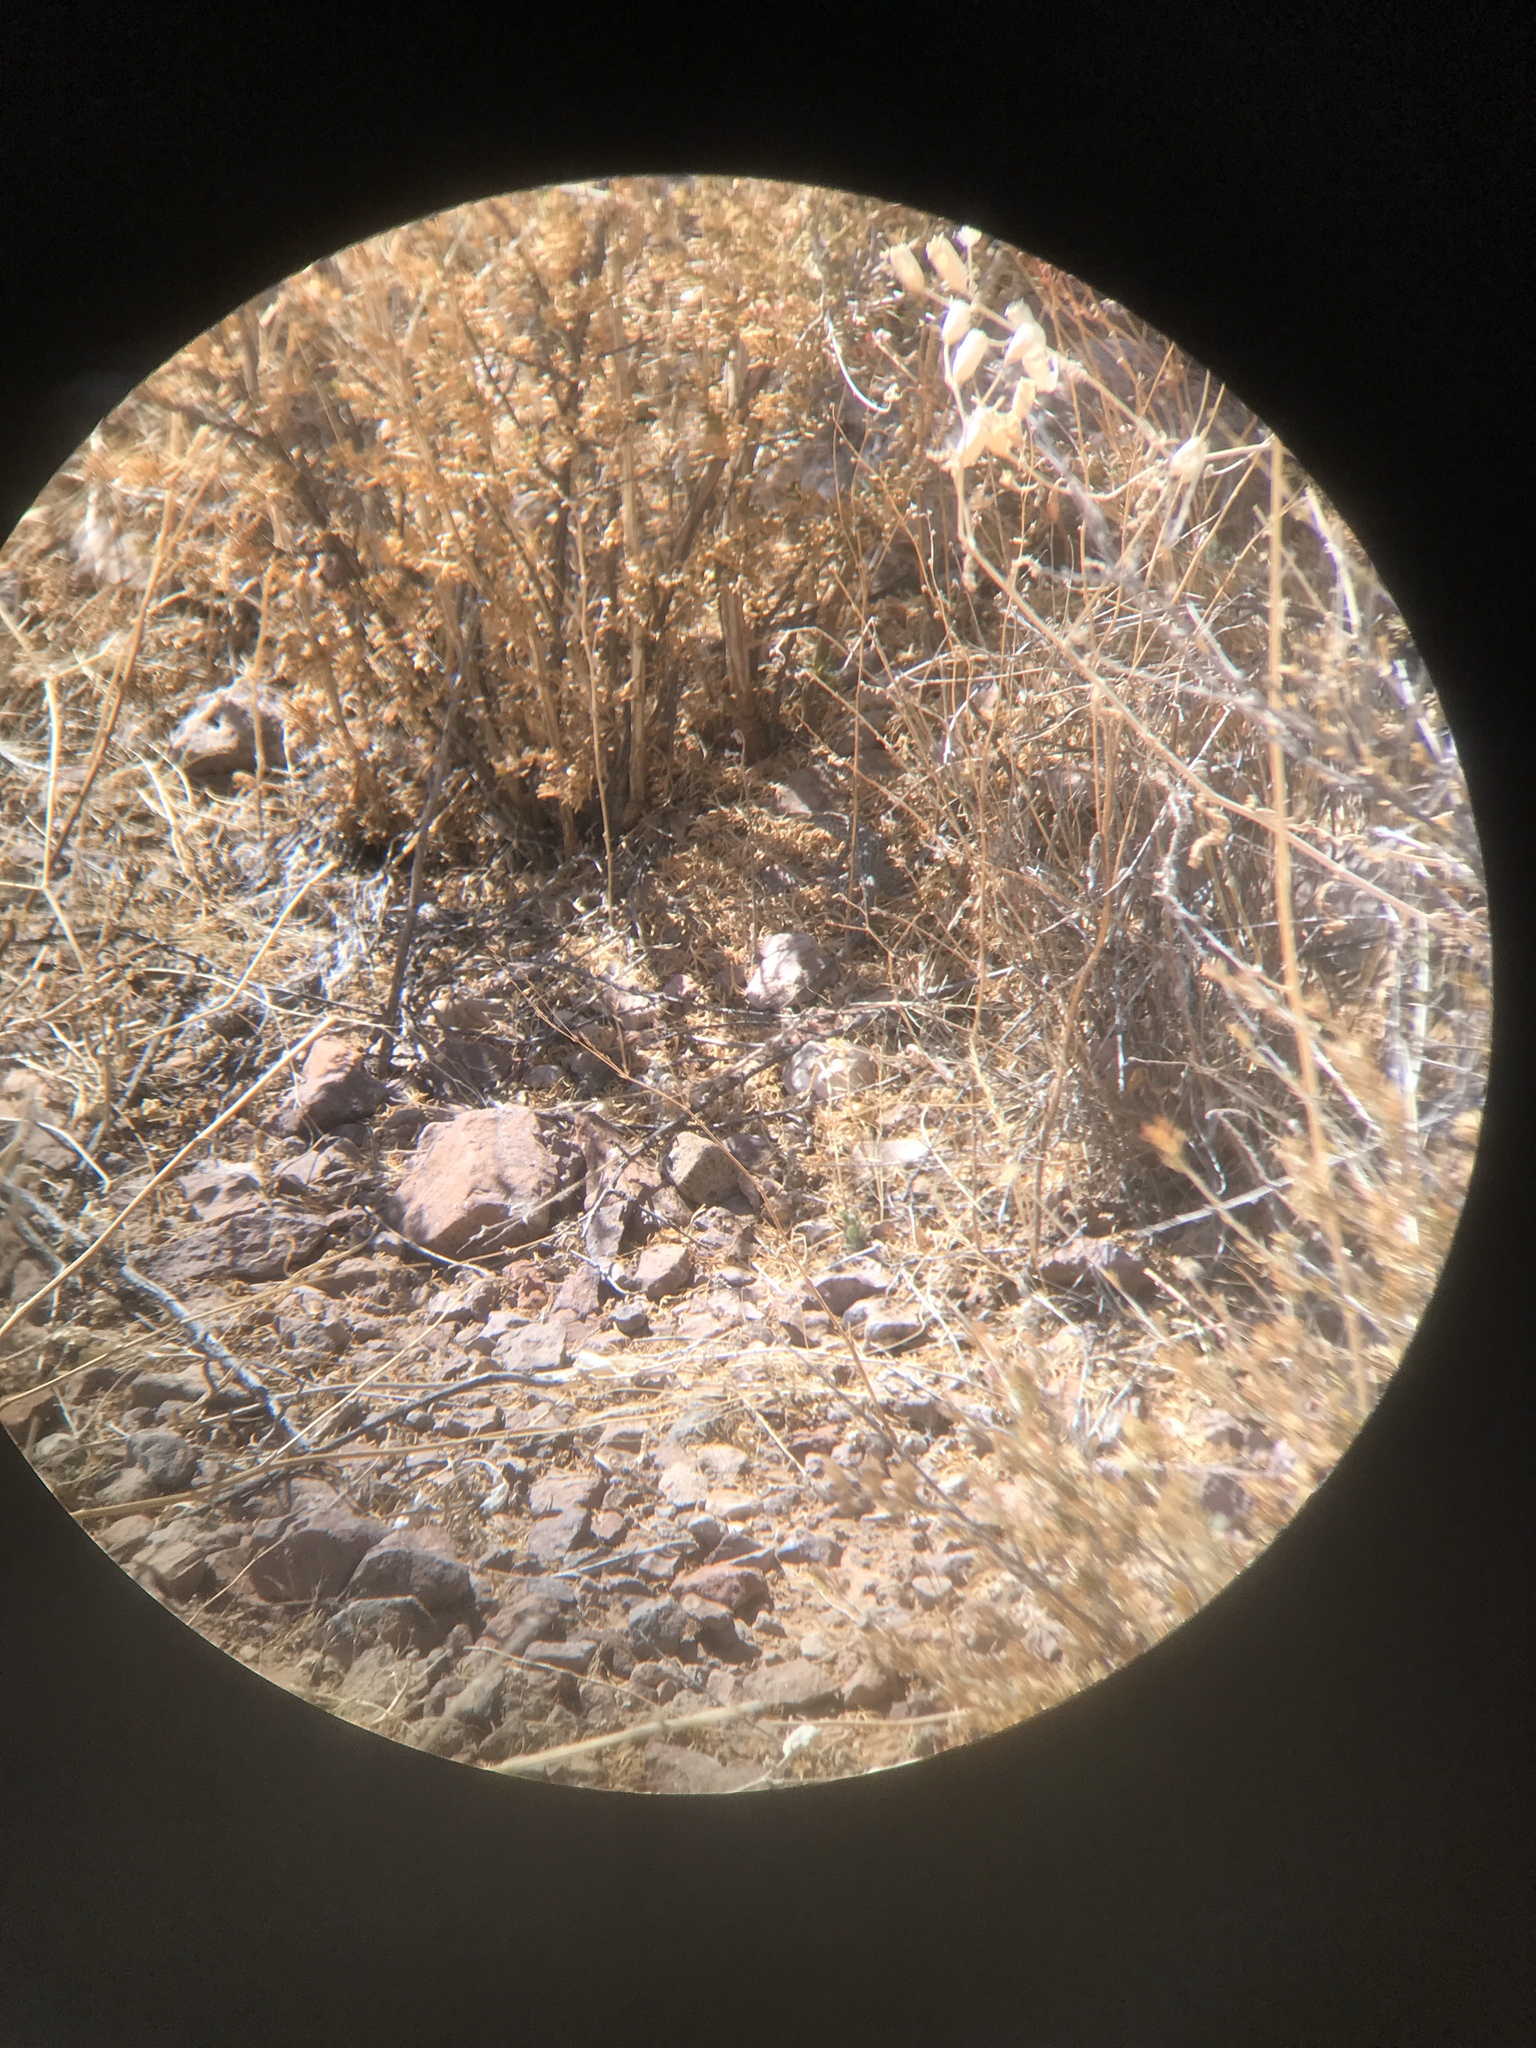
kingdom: Animalia
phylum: Chordata
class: Squamata
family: Phrynosomatidae
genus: Uta
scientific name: Uta stansburiana
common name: Side-blotched lizard
